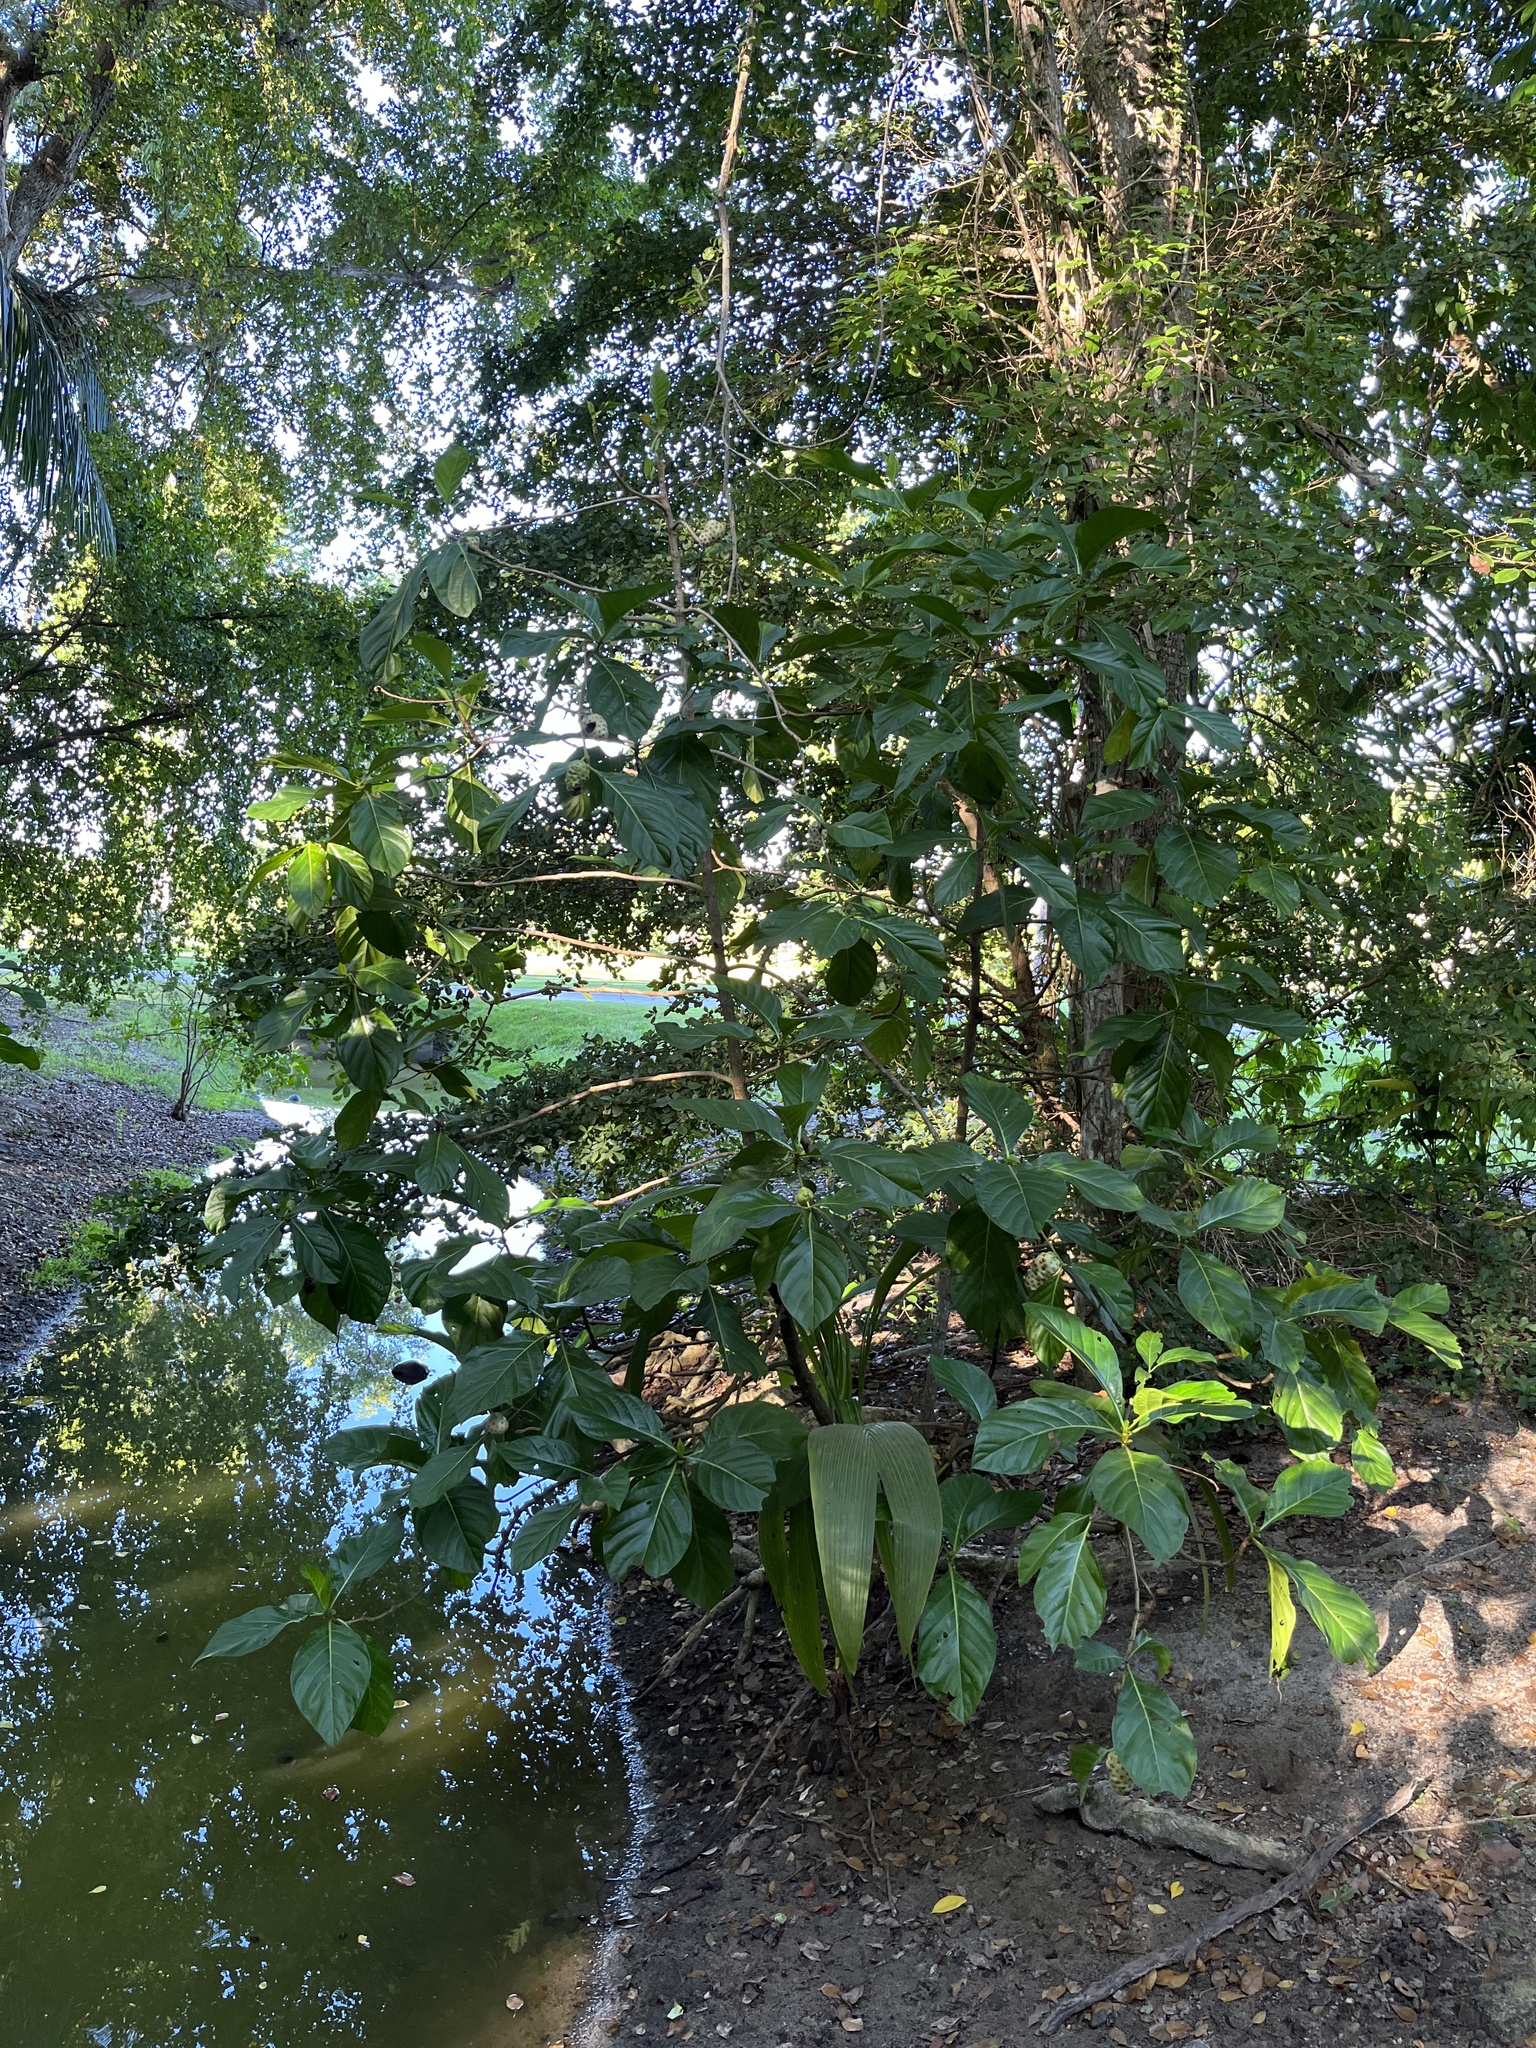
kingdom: Plantae
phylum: Tracheophyta
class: Magnoliopsida
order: Gentianales
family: Rubiaceae
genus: Morinda
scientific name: Morinda citrifolia
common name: Indian-mulberry
